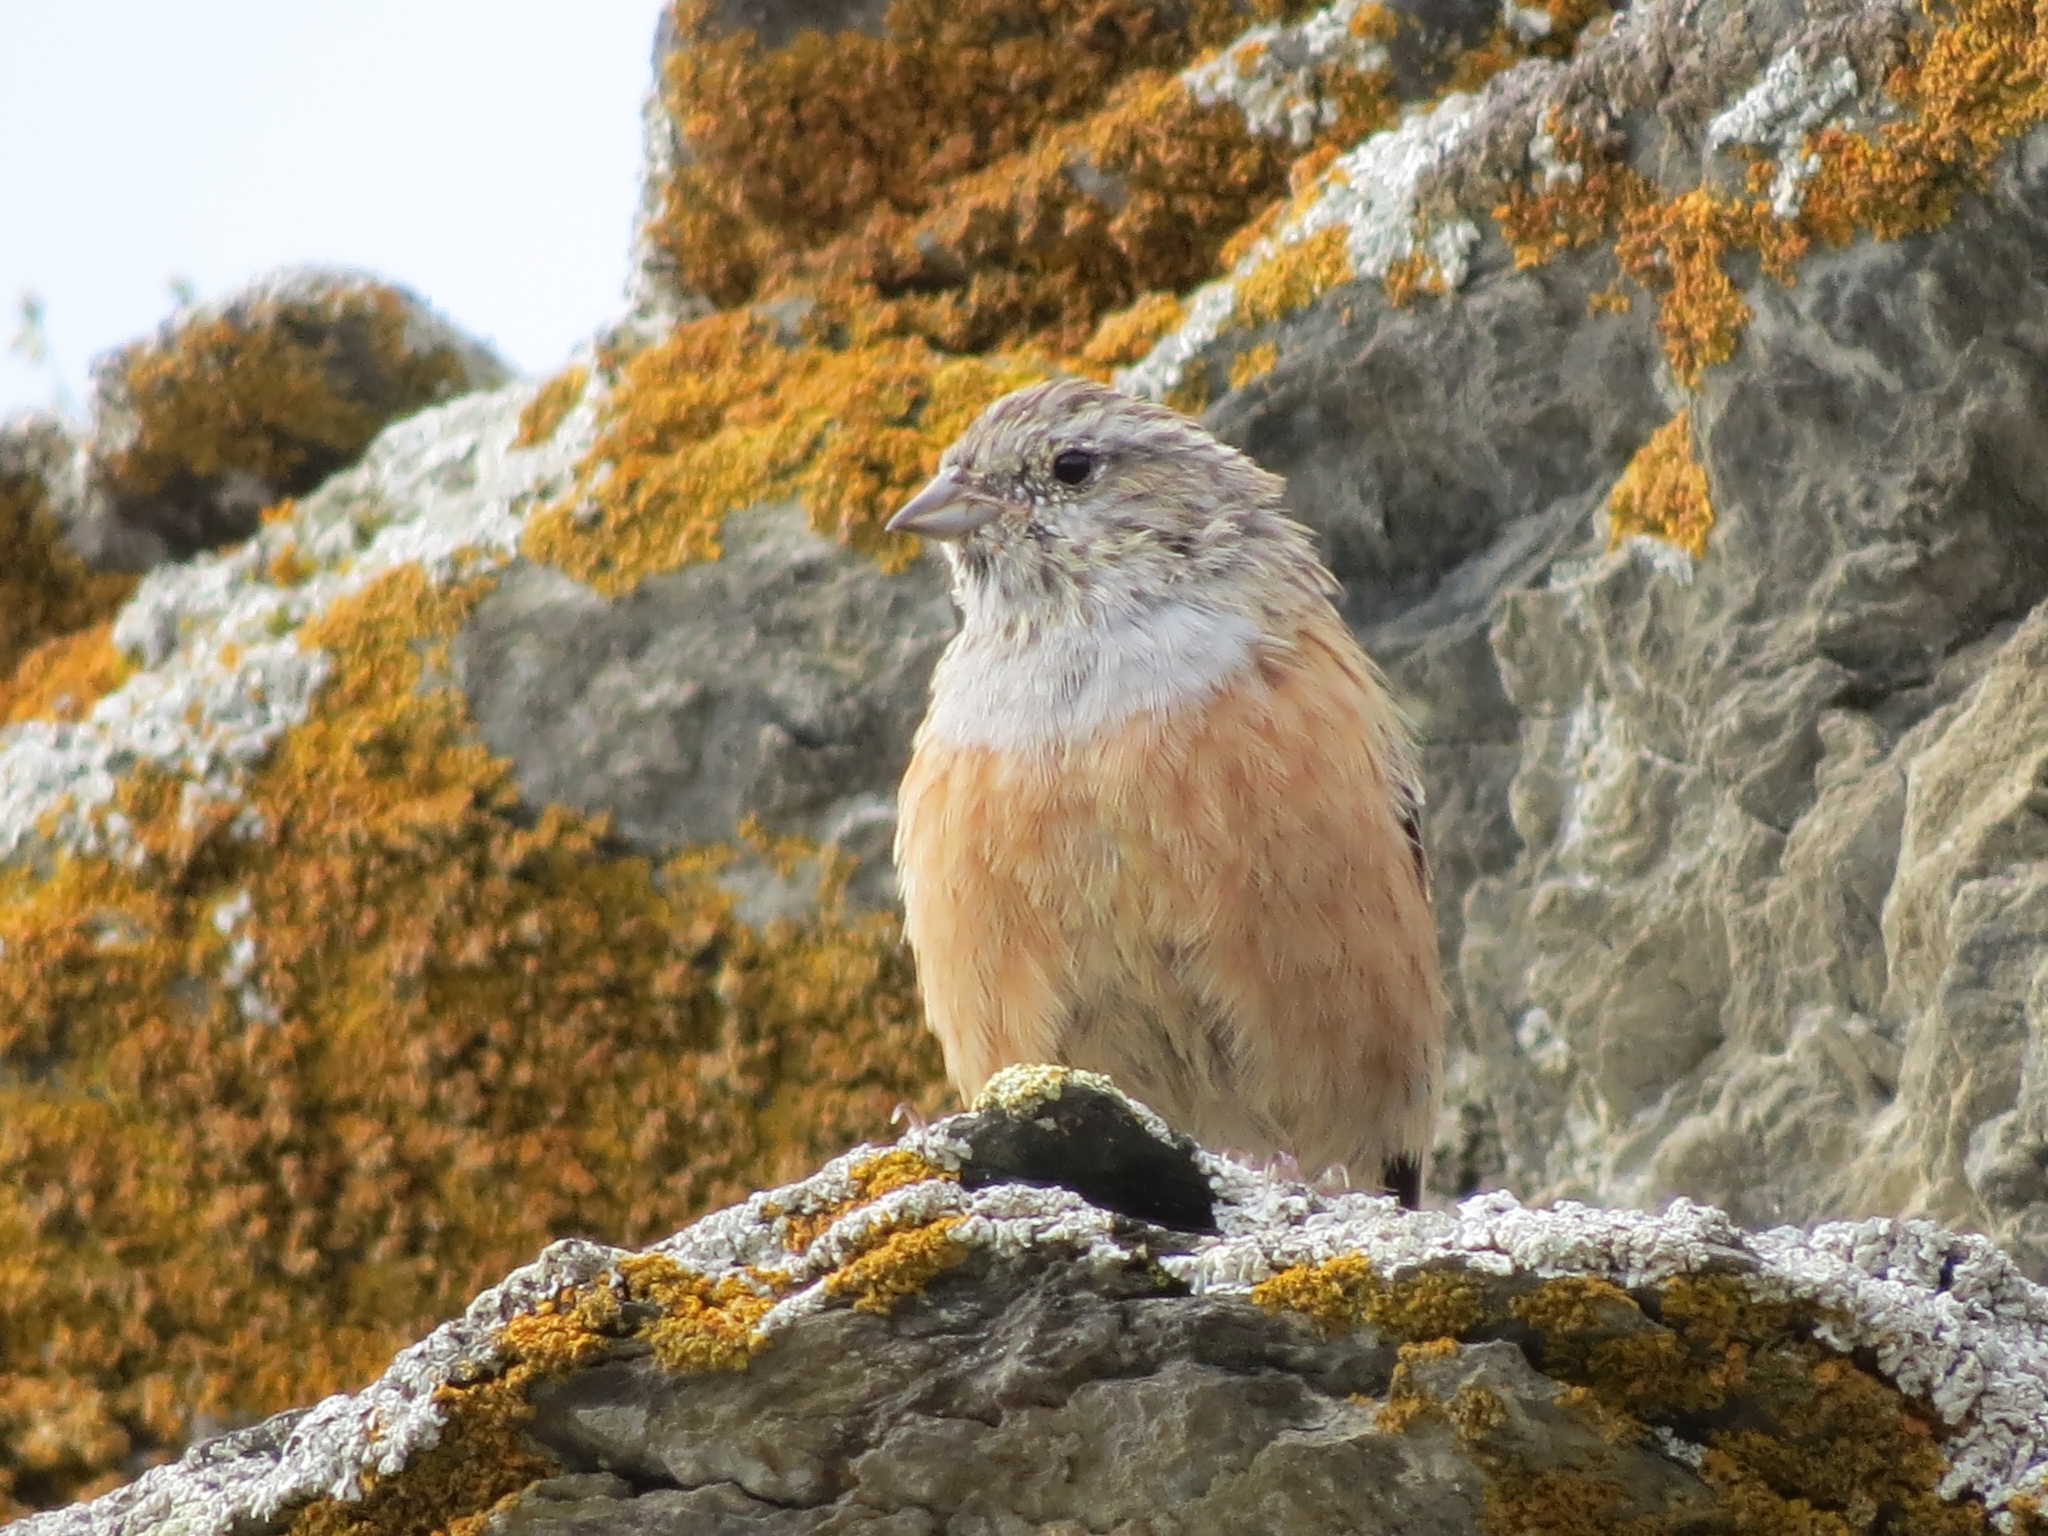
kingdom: Animalia
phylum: Chordata
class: Aves
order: Passeriformes
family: Emberizidae
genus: Emberiza
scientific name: Emberiza godlewskii
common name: Godlewski's bunting
